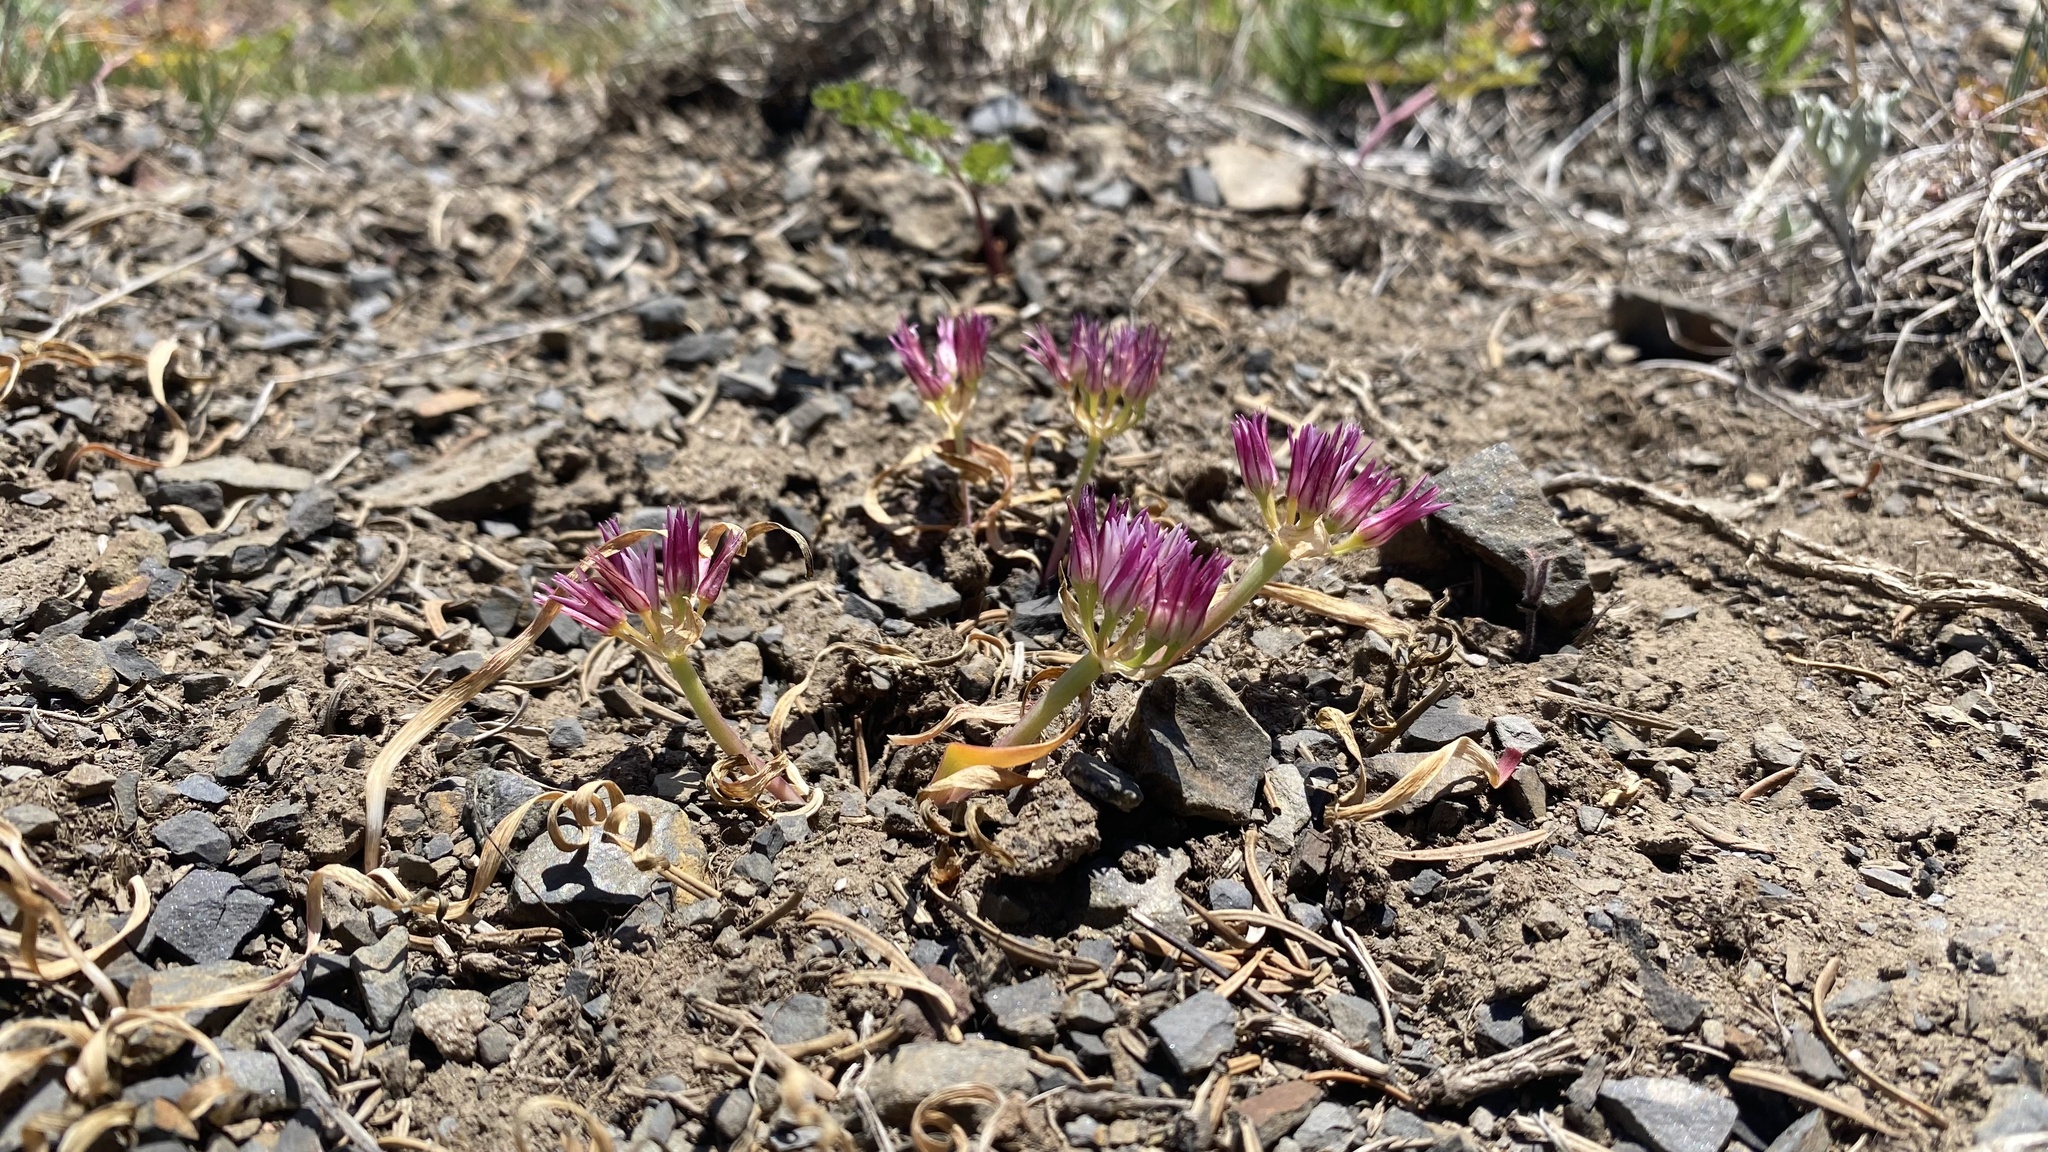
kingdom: Plantae
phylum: Tracheophyta
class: Liliopsida
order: Asparagales
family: Amaryllidaceae
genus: Allium
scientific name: Allium crenulatum
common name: Olympic onion
